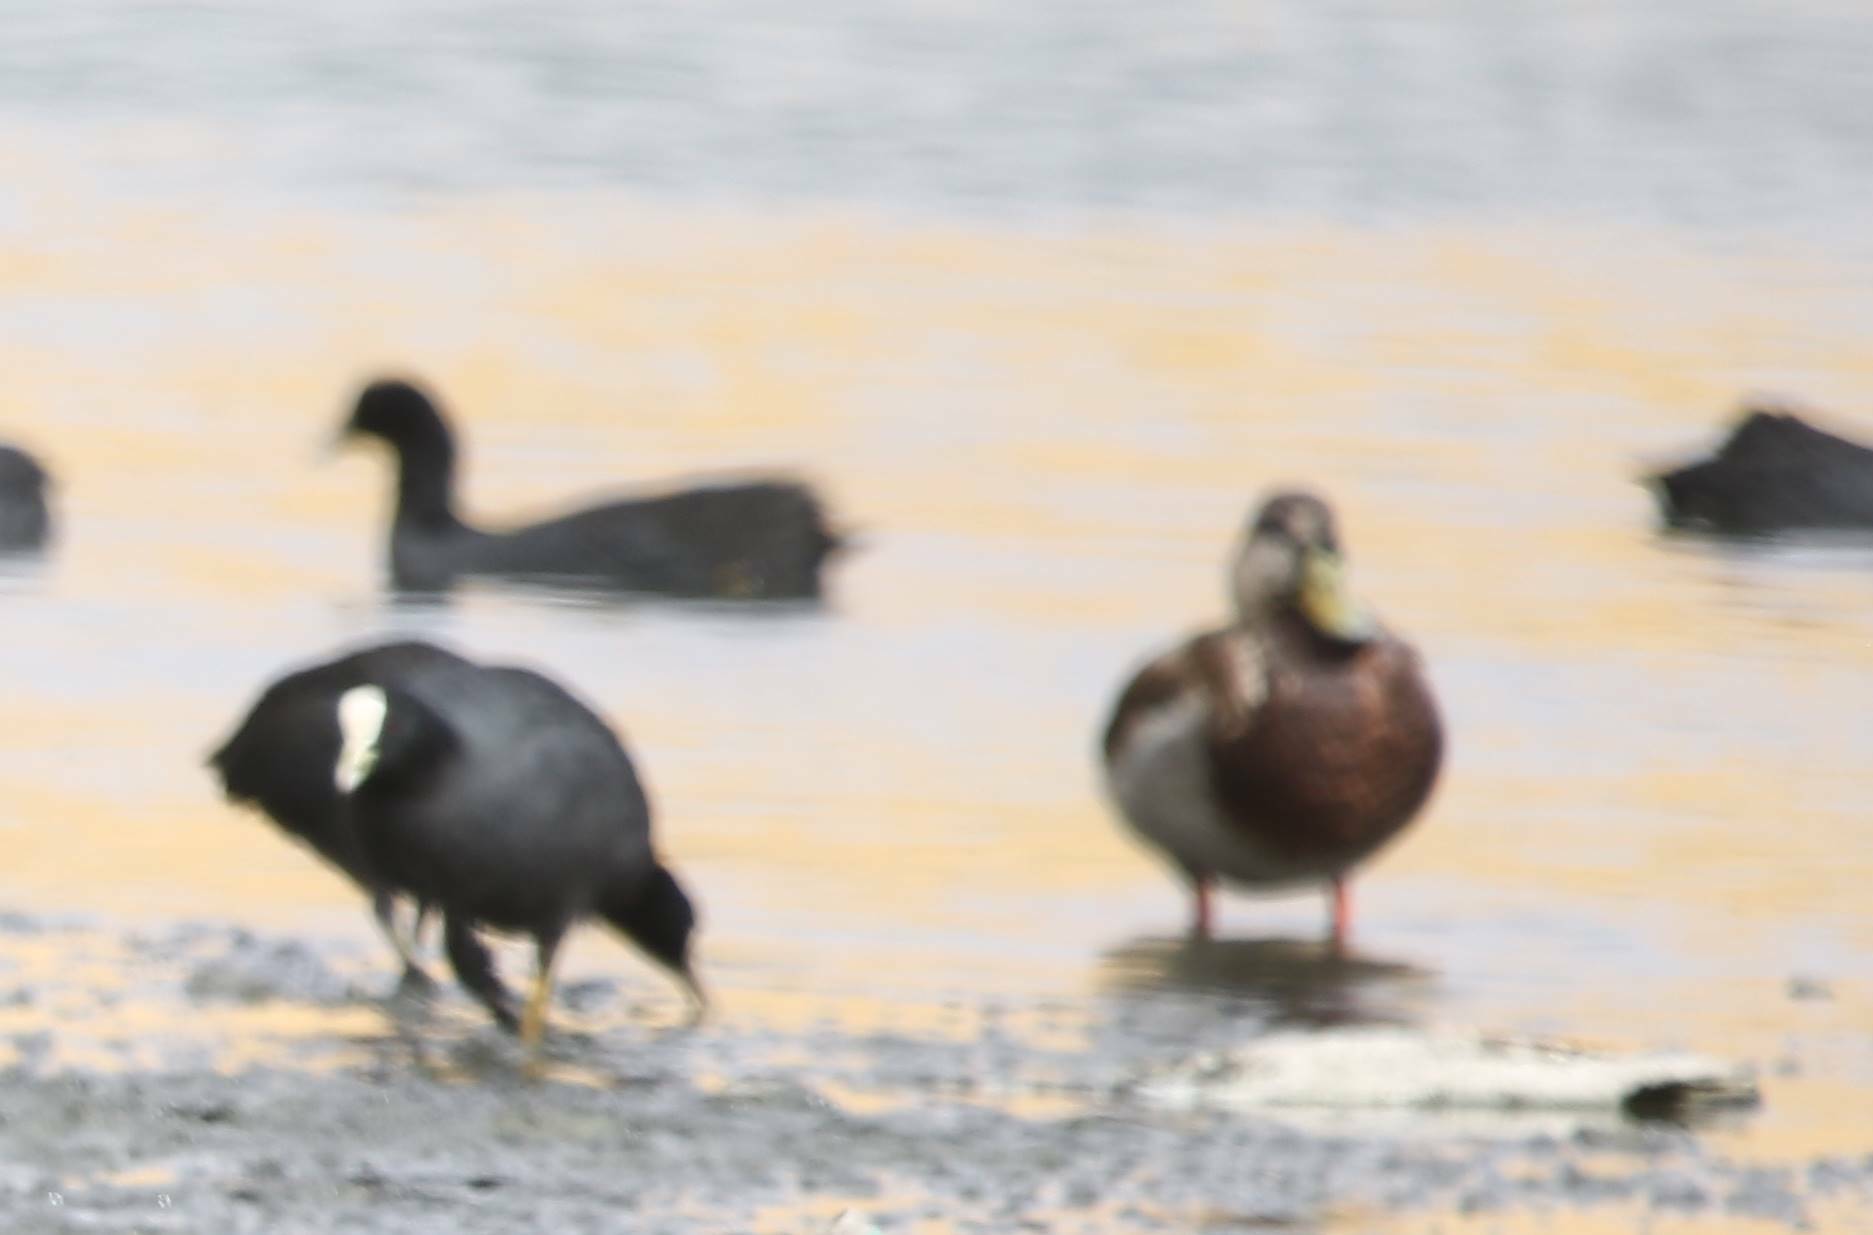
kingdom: Animalia
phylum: Chordata
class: Aves
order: Gruiformes
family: Rallidae
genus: Fulica
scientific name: Fulica atra
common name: Eurasian coot
